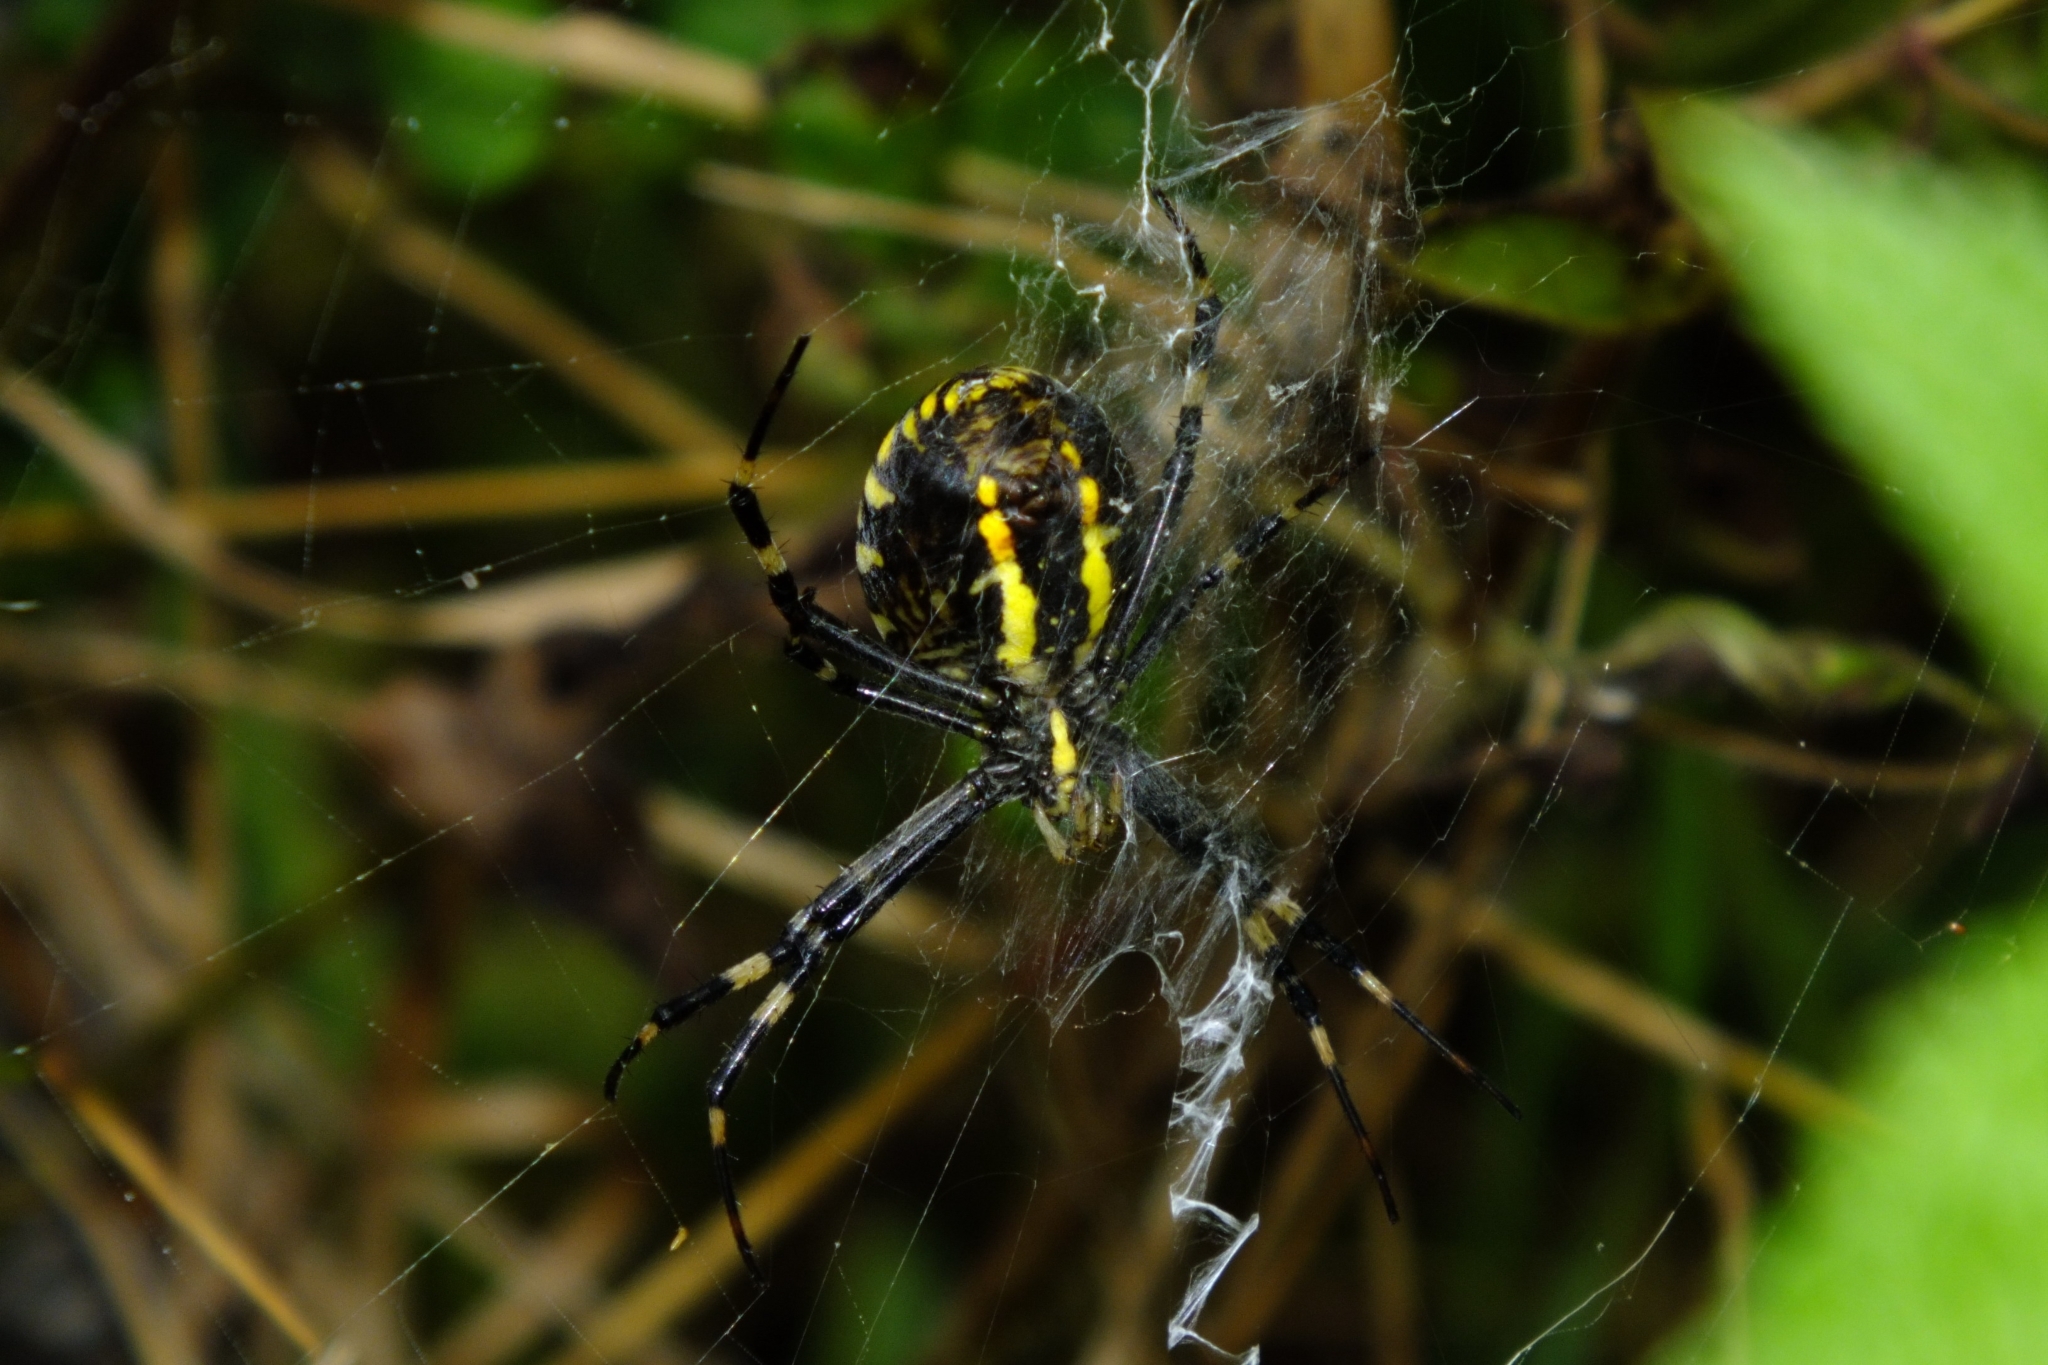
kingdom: Animalia
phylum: Arthropoda
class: Arachnida
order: Araneae
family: Araneidae
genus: Argiope
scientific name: Argiope bruennichi
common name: Wasp spider
